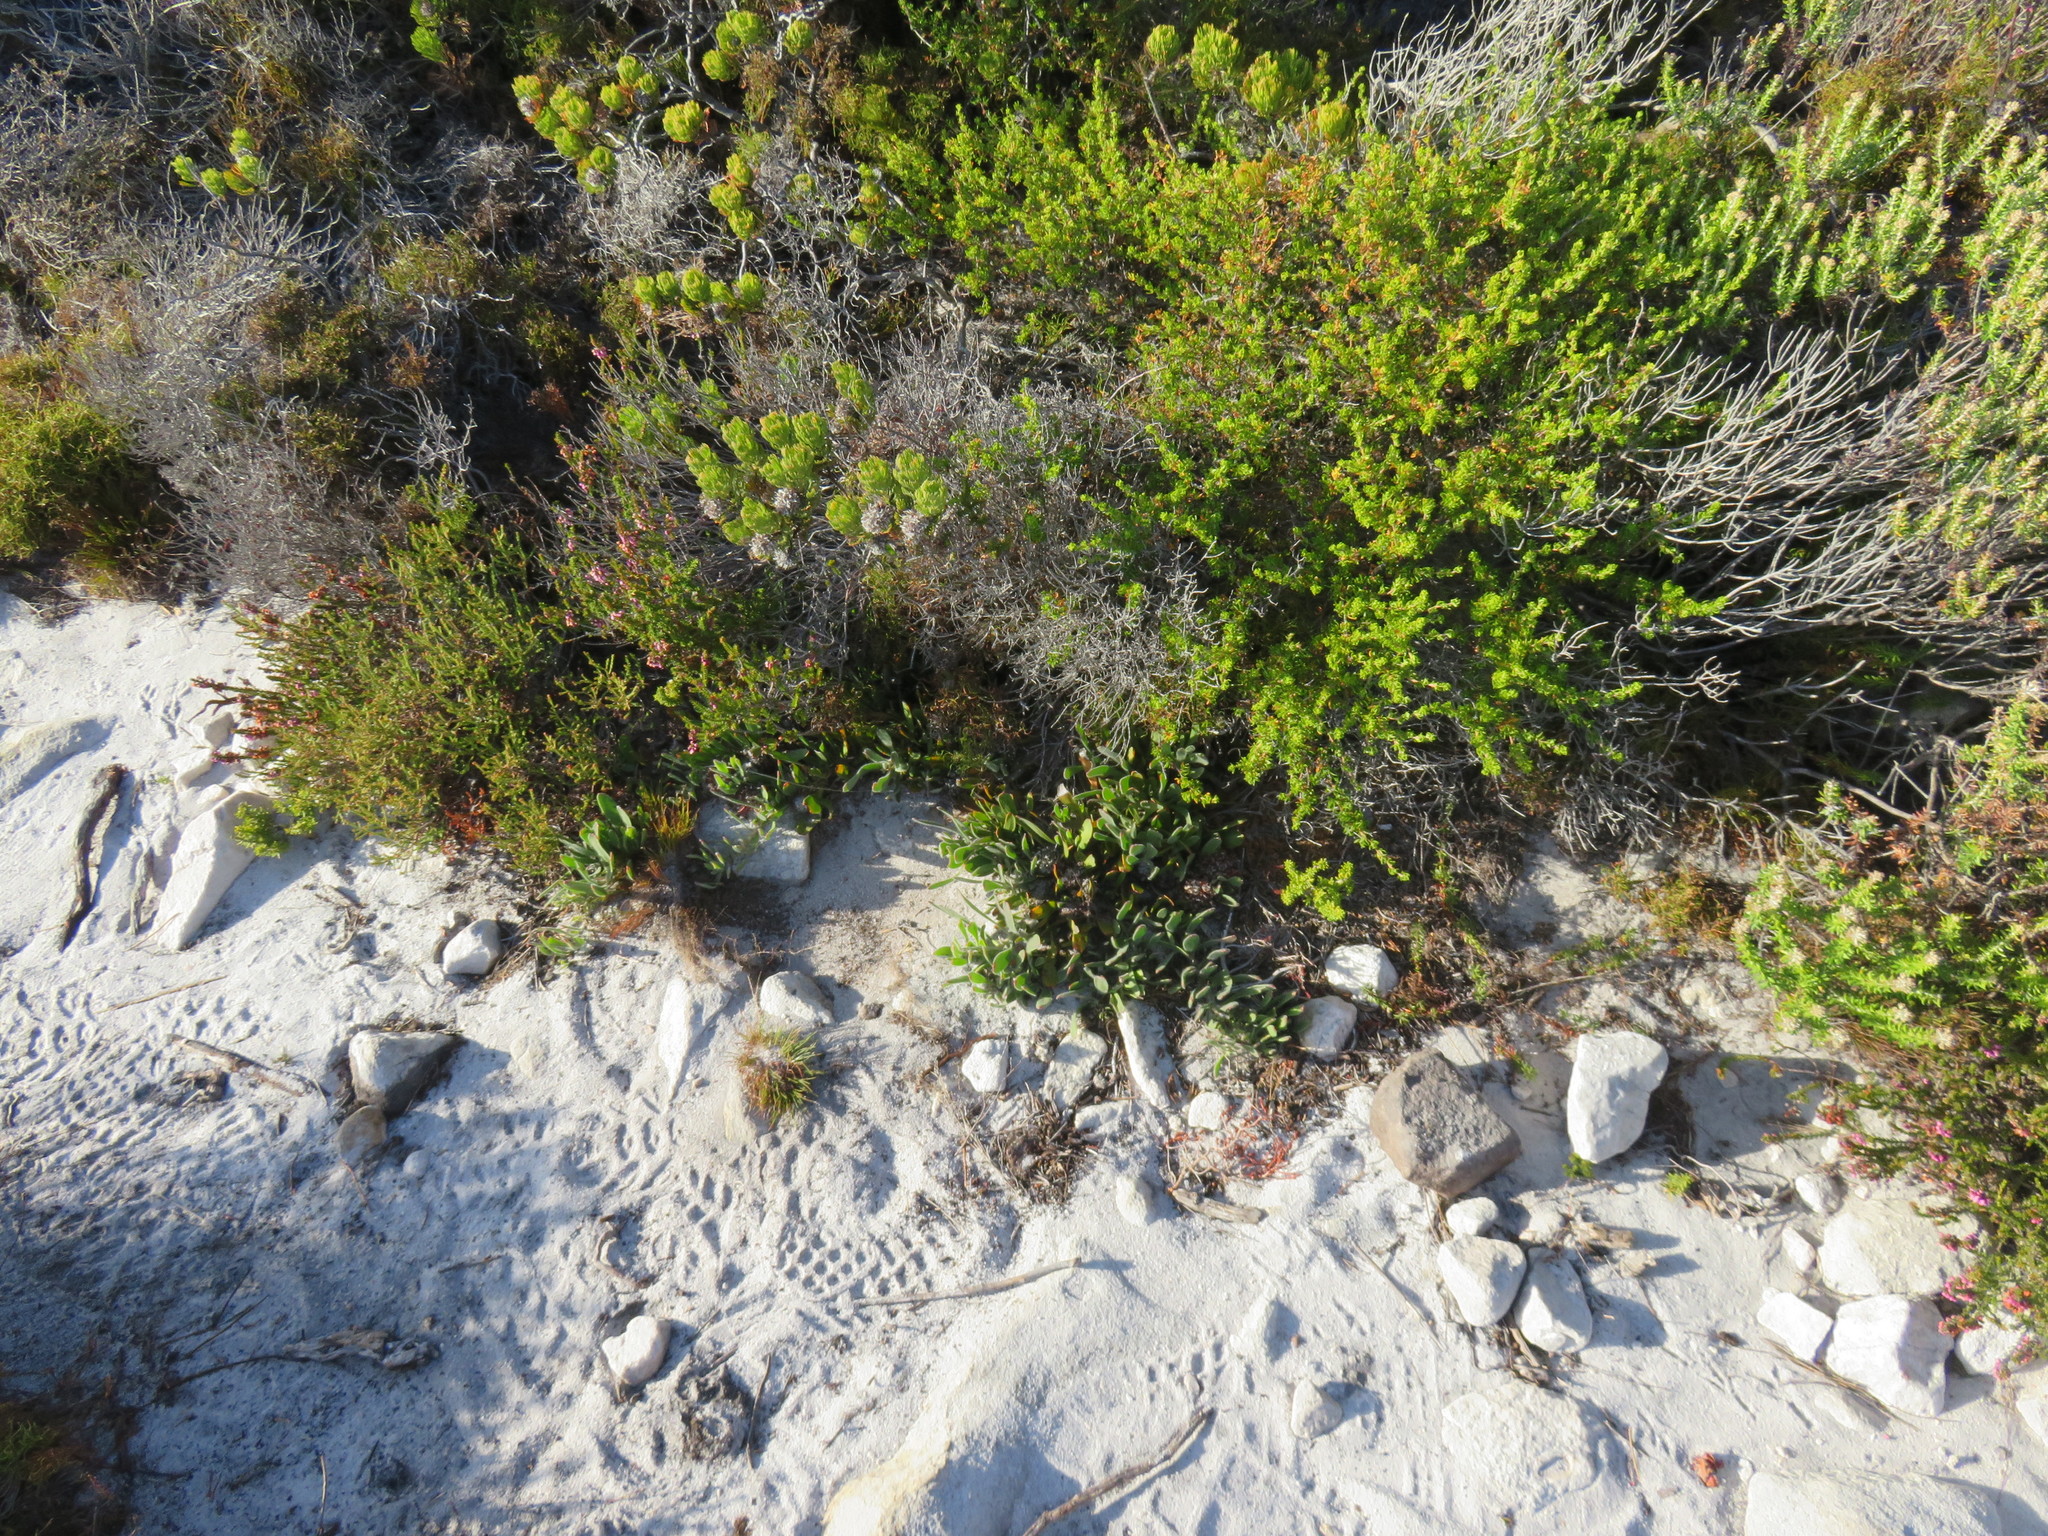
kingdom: Plantae
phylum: Tracheophyta
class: Magnoliopsida
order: Proteales
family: Proteaceae
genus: Serruria
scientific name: Serruria villosa
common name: Golden spiderhead
